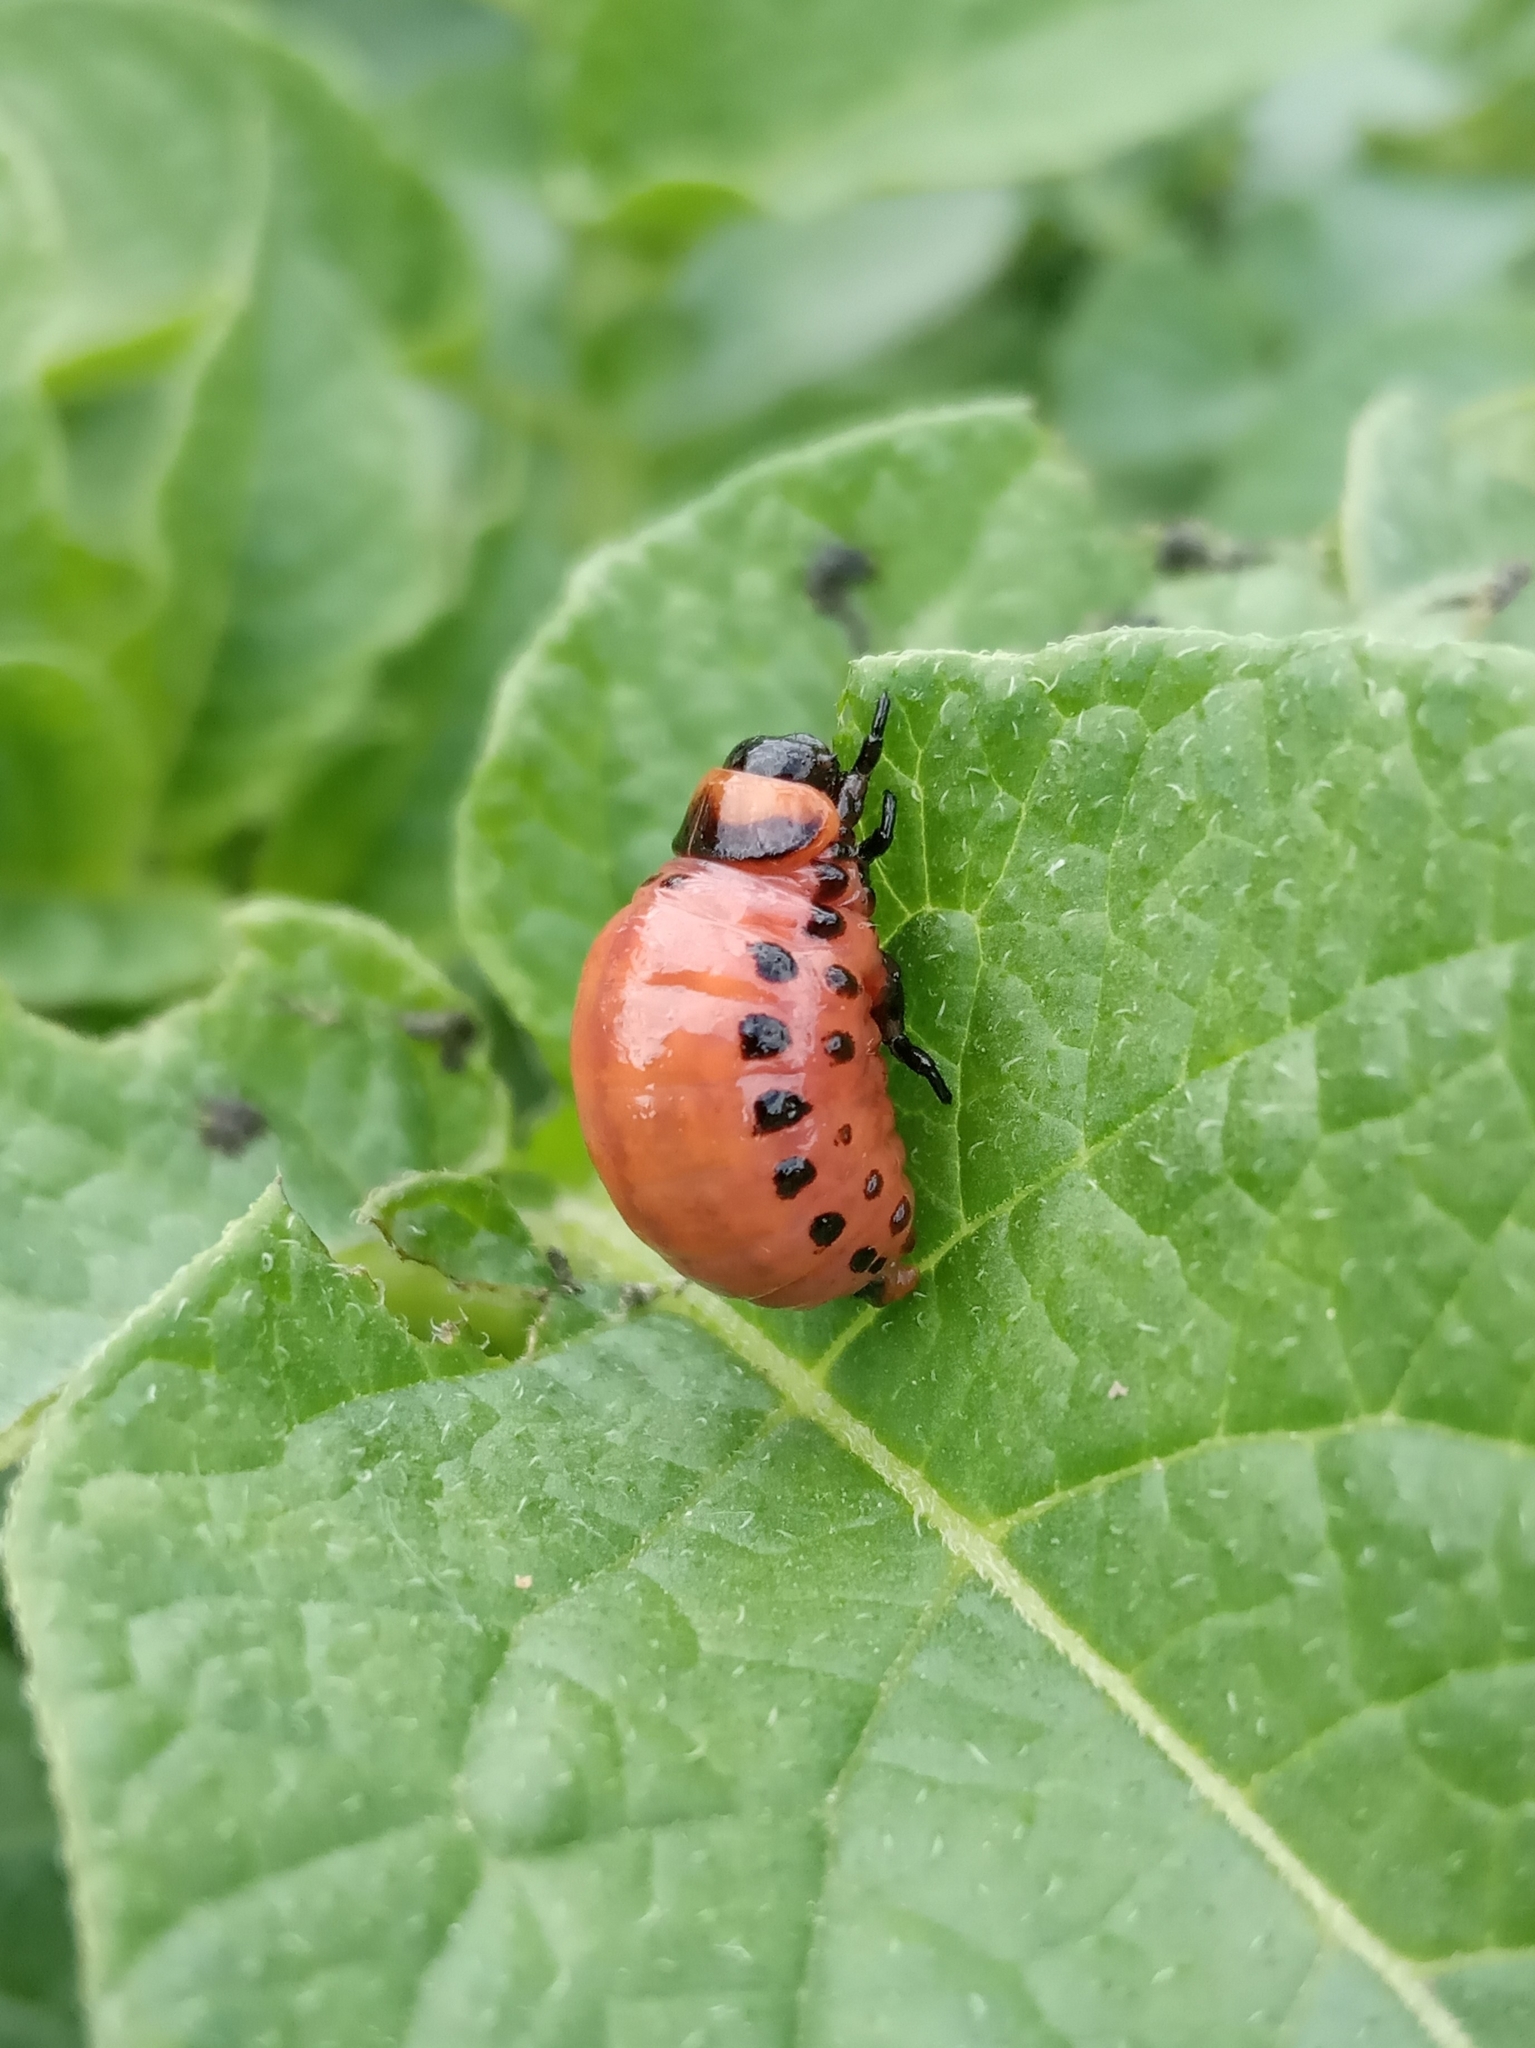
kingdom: Animalia
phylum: Arthropoda
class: Insecta
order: Coleoptera
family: Chrysomelidae
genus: Leptinotarsa
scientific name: Leptinotarsa decemlineata
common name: Colorado potato beetle
